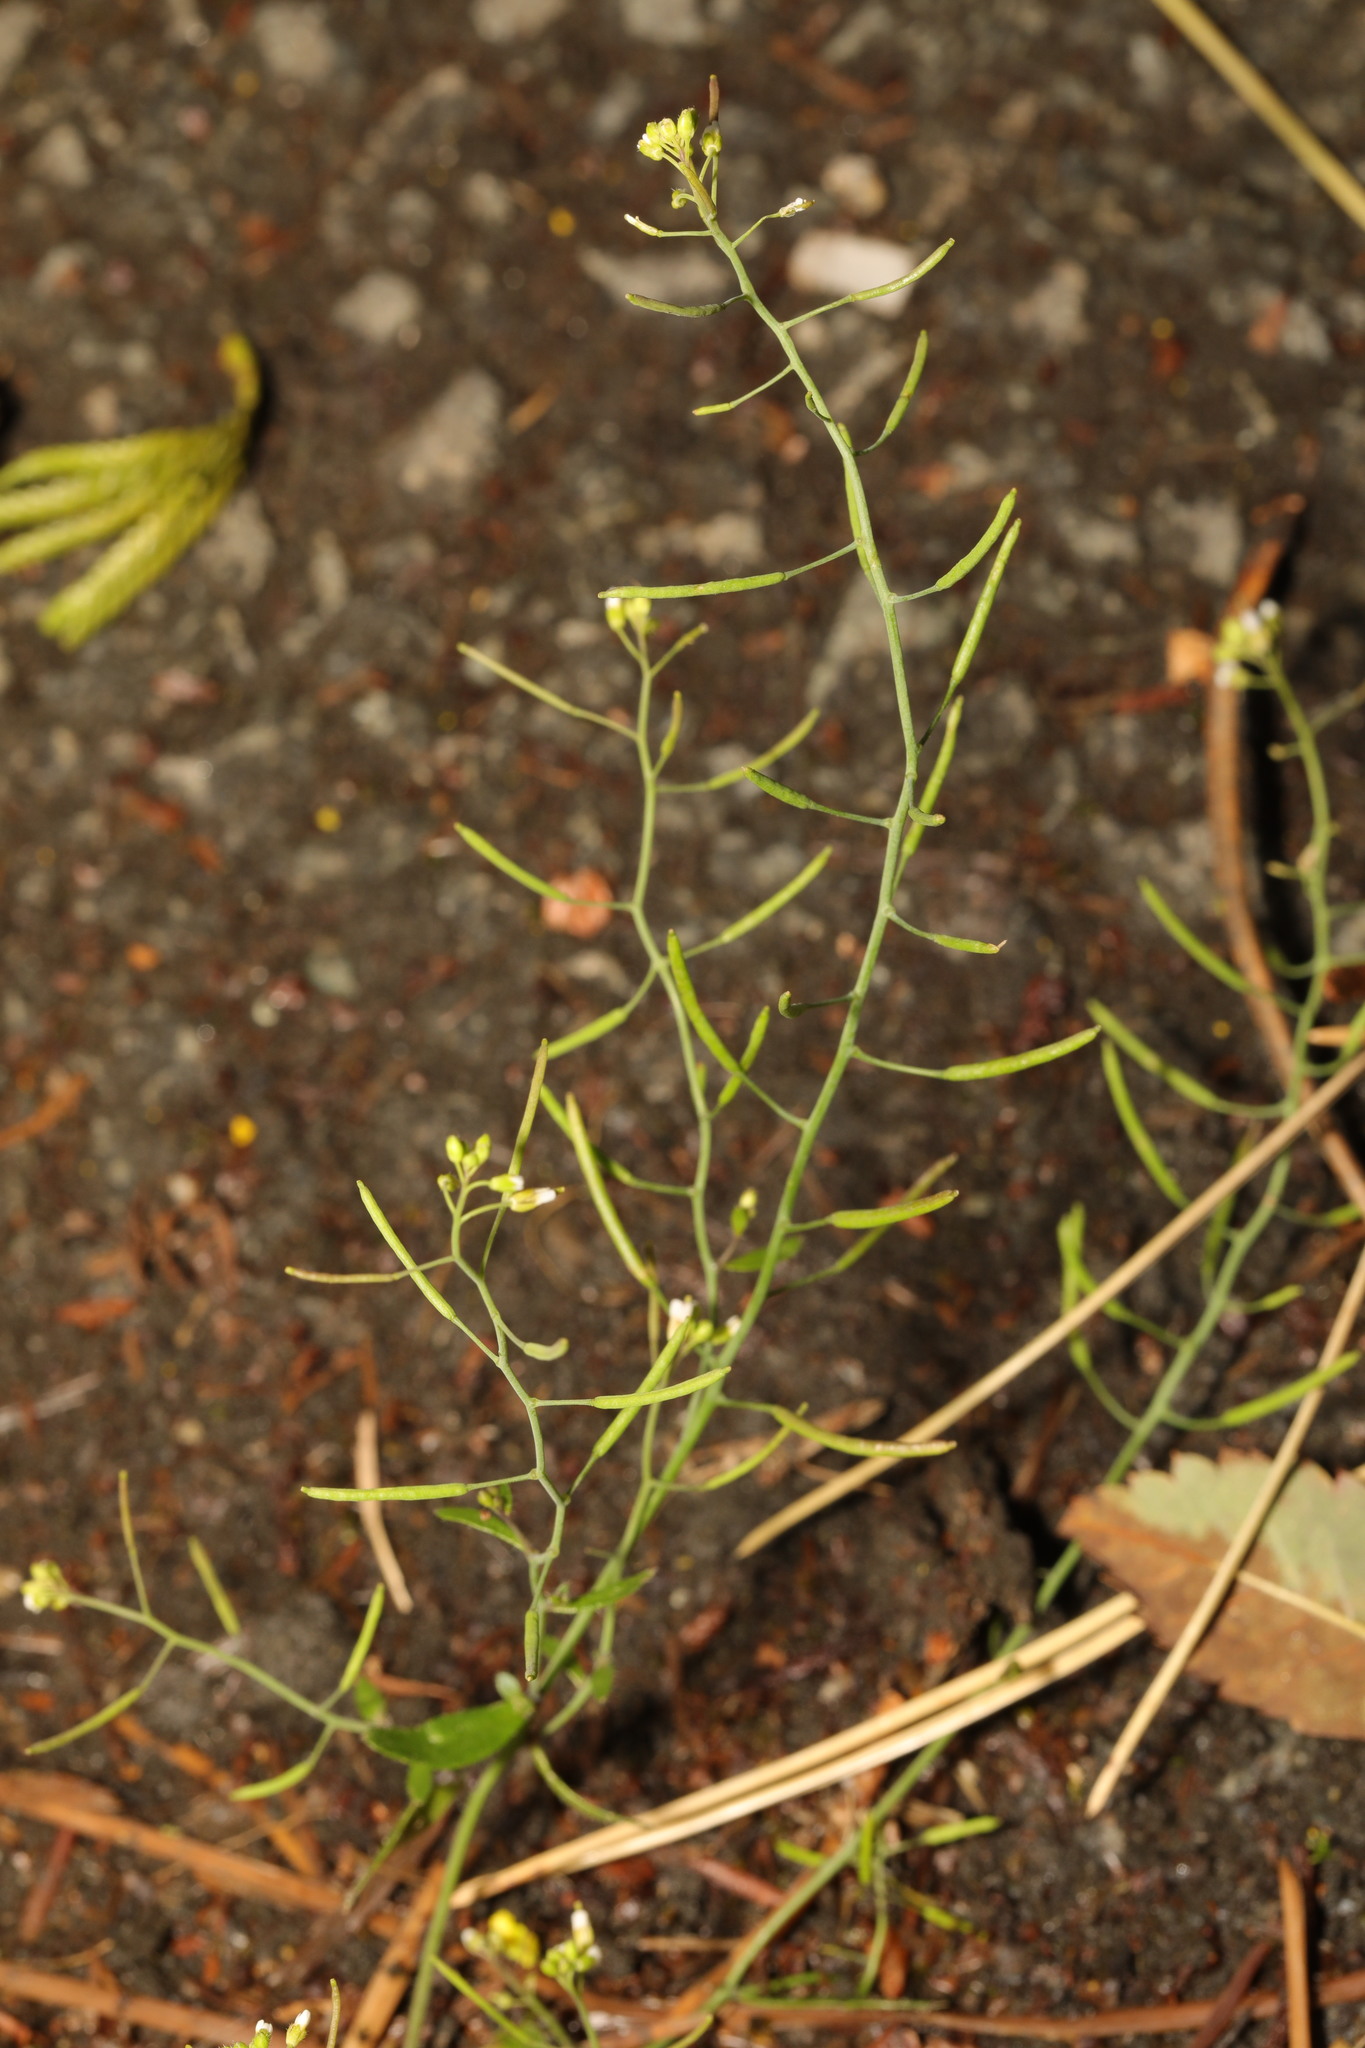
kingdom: Plantae
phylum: Tracheophyta
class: Magnoliopsida
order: Brassicales
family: Brassicaceae
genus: Arabidopsis
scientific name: Arabidopsis thaliana
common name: Thale cress
